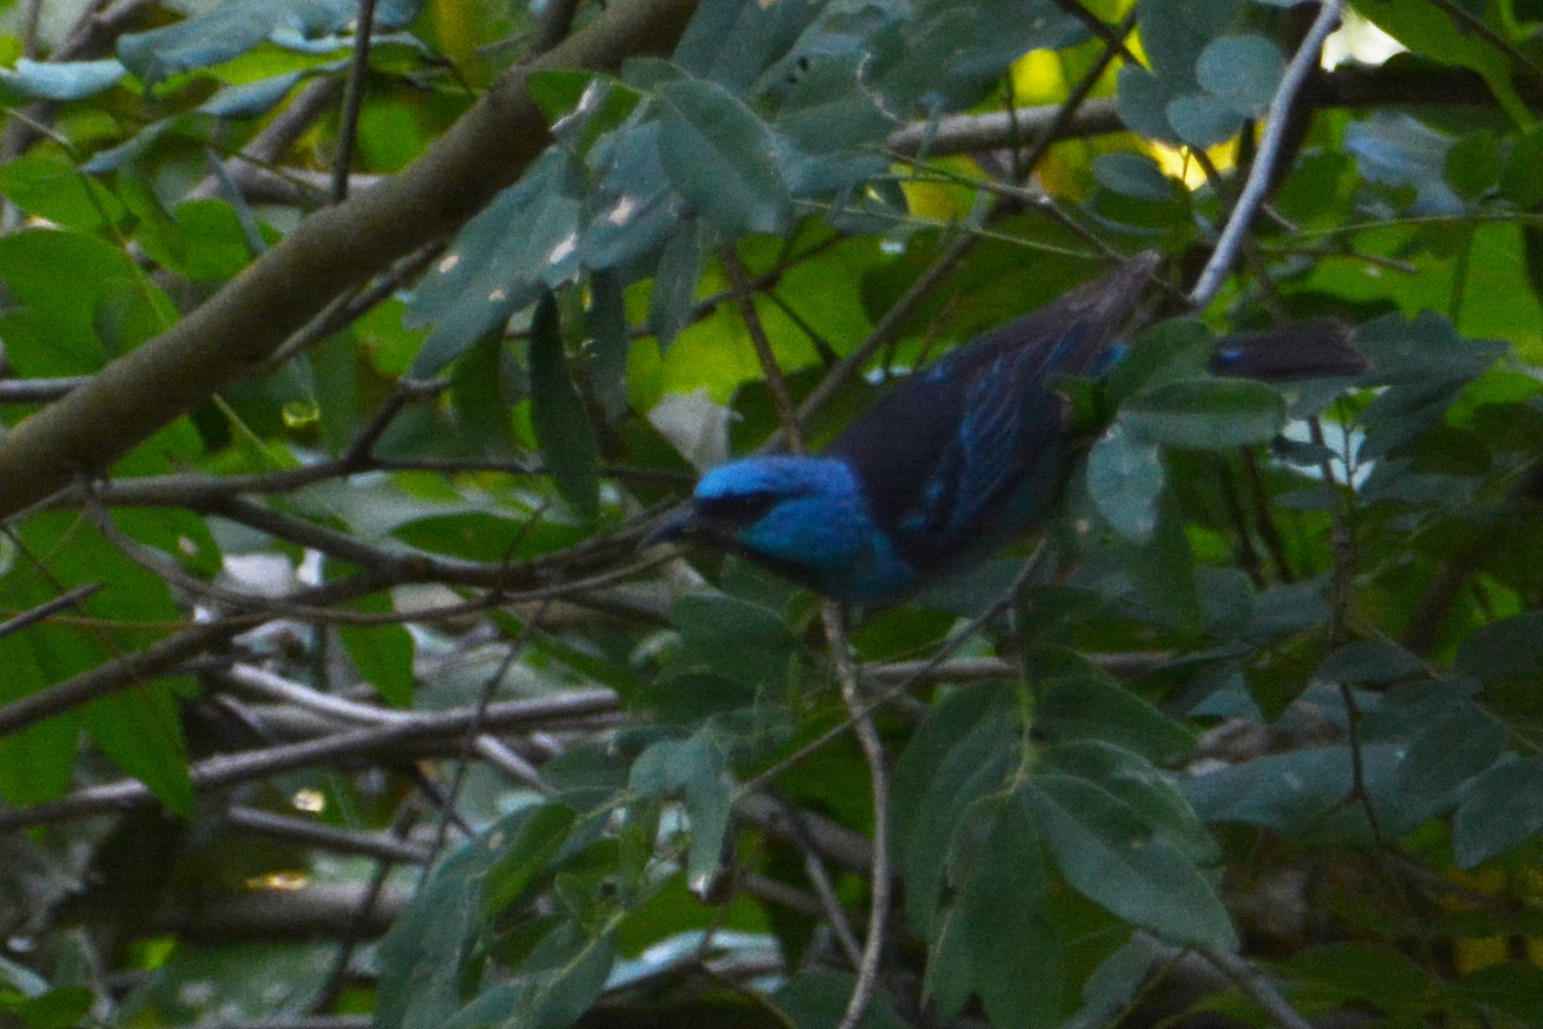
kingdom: Animalia
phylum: Chordata
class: Aves
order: Passeriformes
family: Thraupidae
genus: Dacnis
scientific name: Dacnis cayana
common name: Blue dacnis
